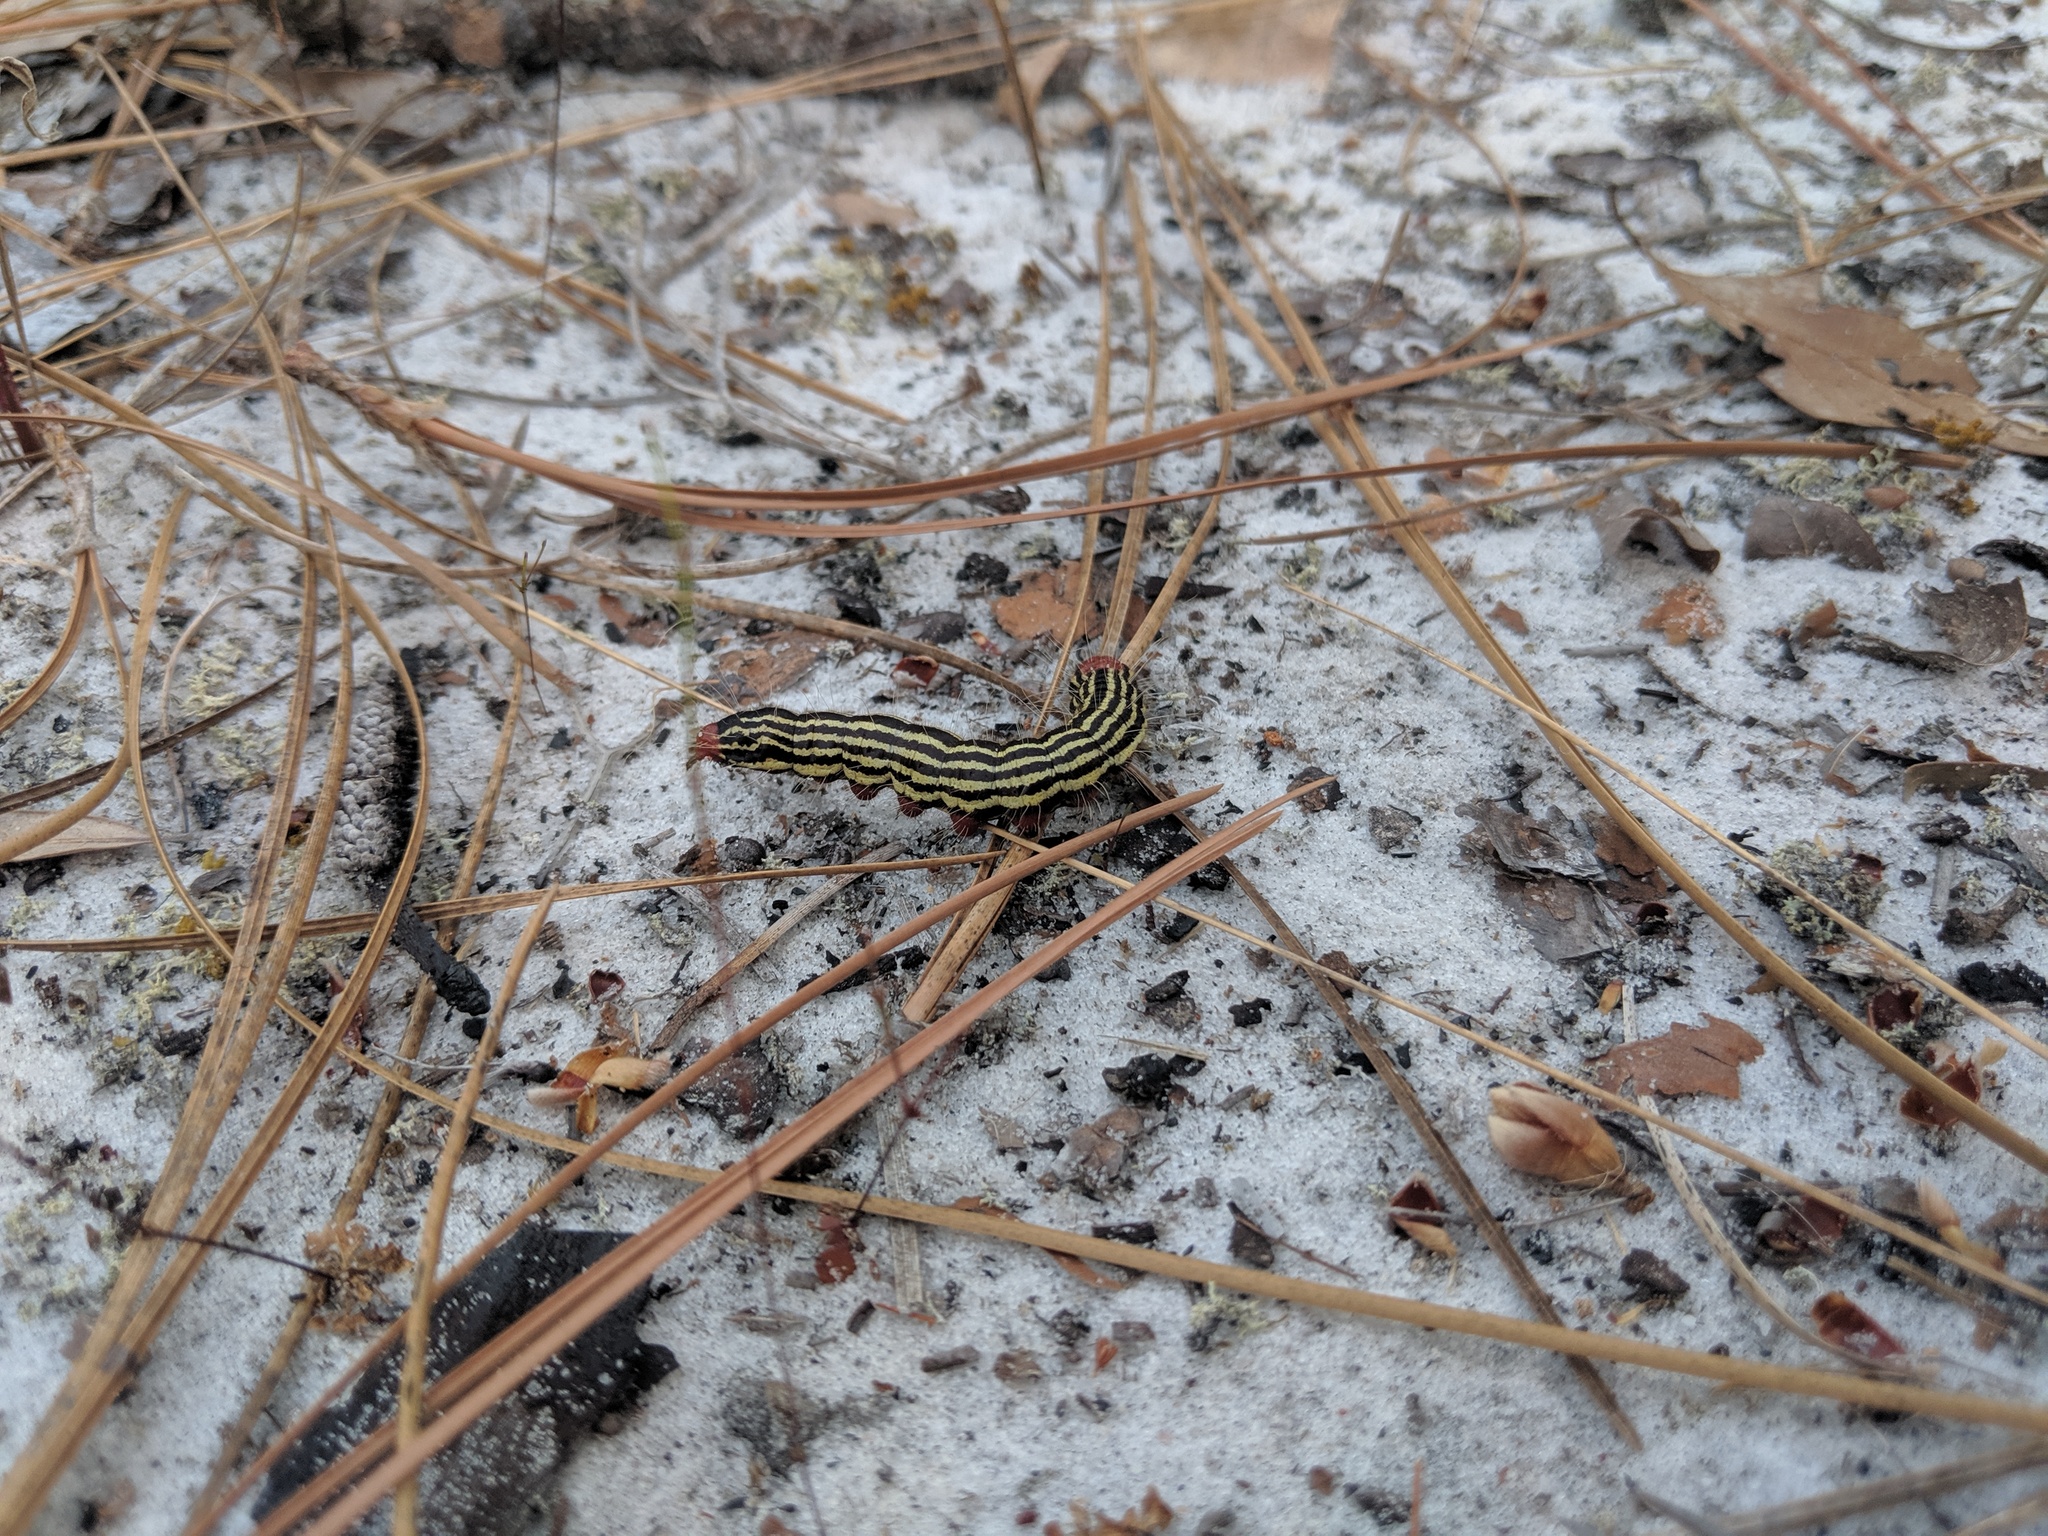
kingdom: Animalia
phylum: Arthropoda
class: Insecta
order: Lepidoptera
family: Notodontidae
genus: Datana
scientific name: Datana major
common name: Azalea caterpillar
